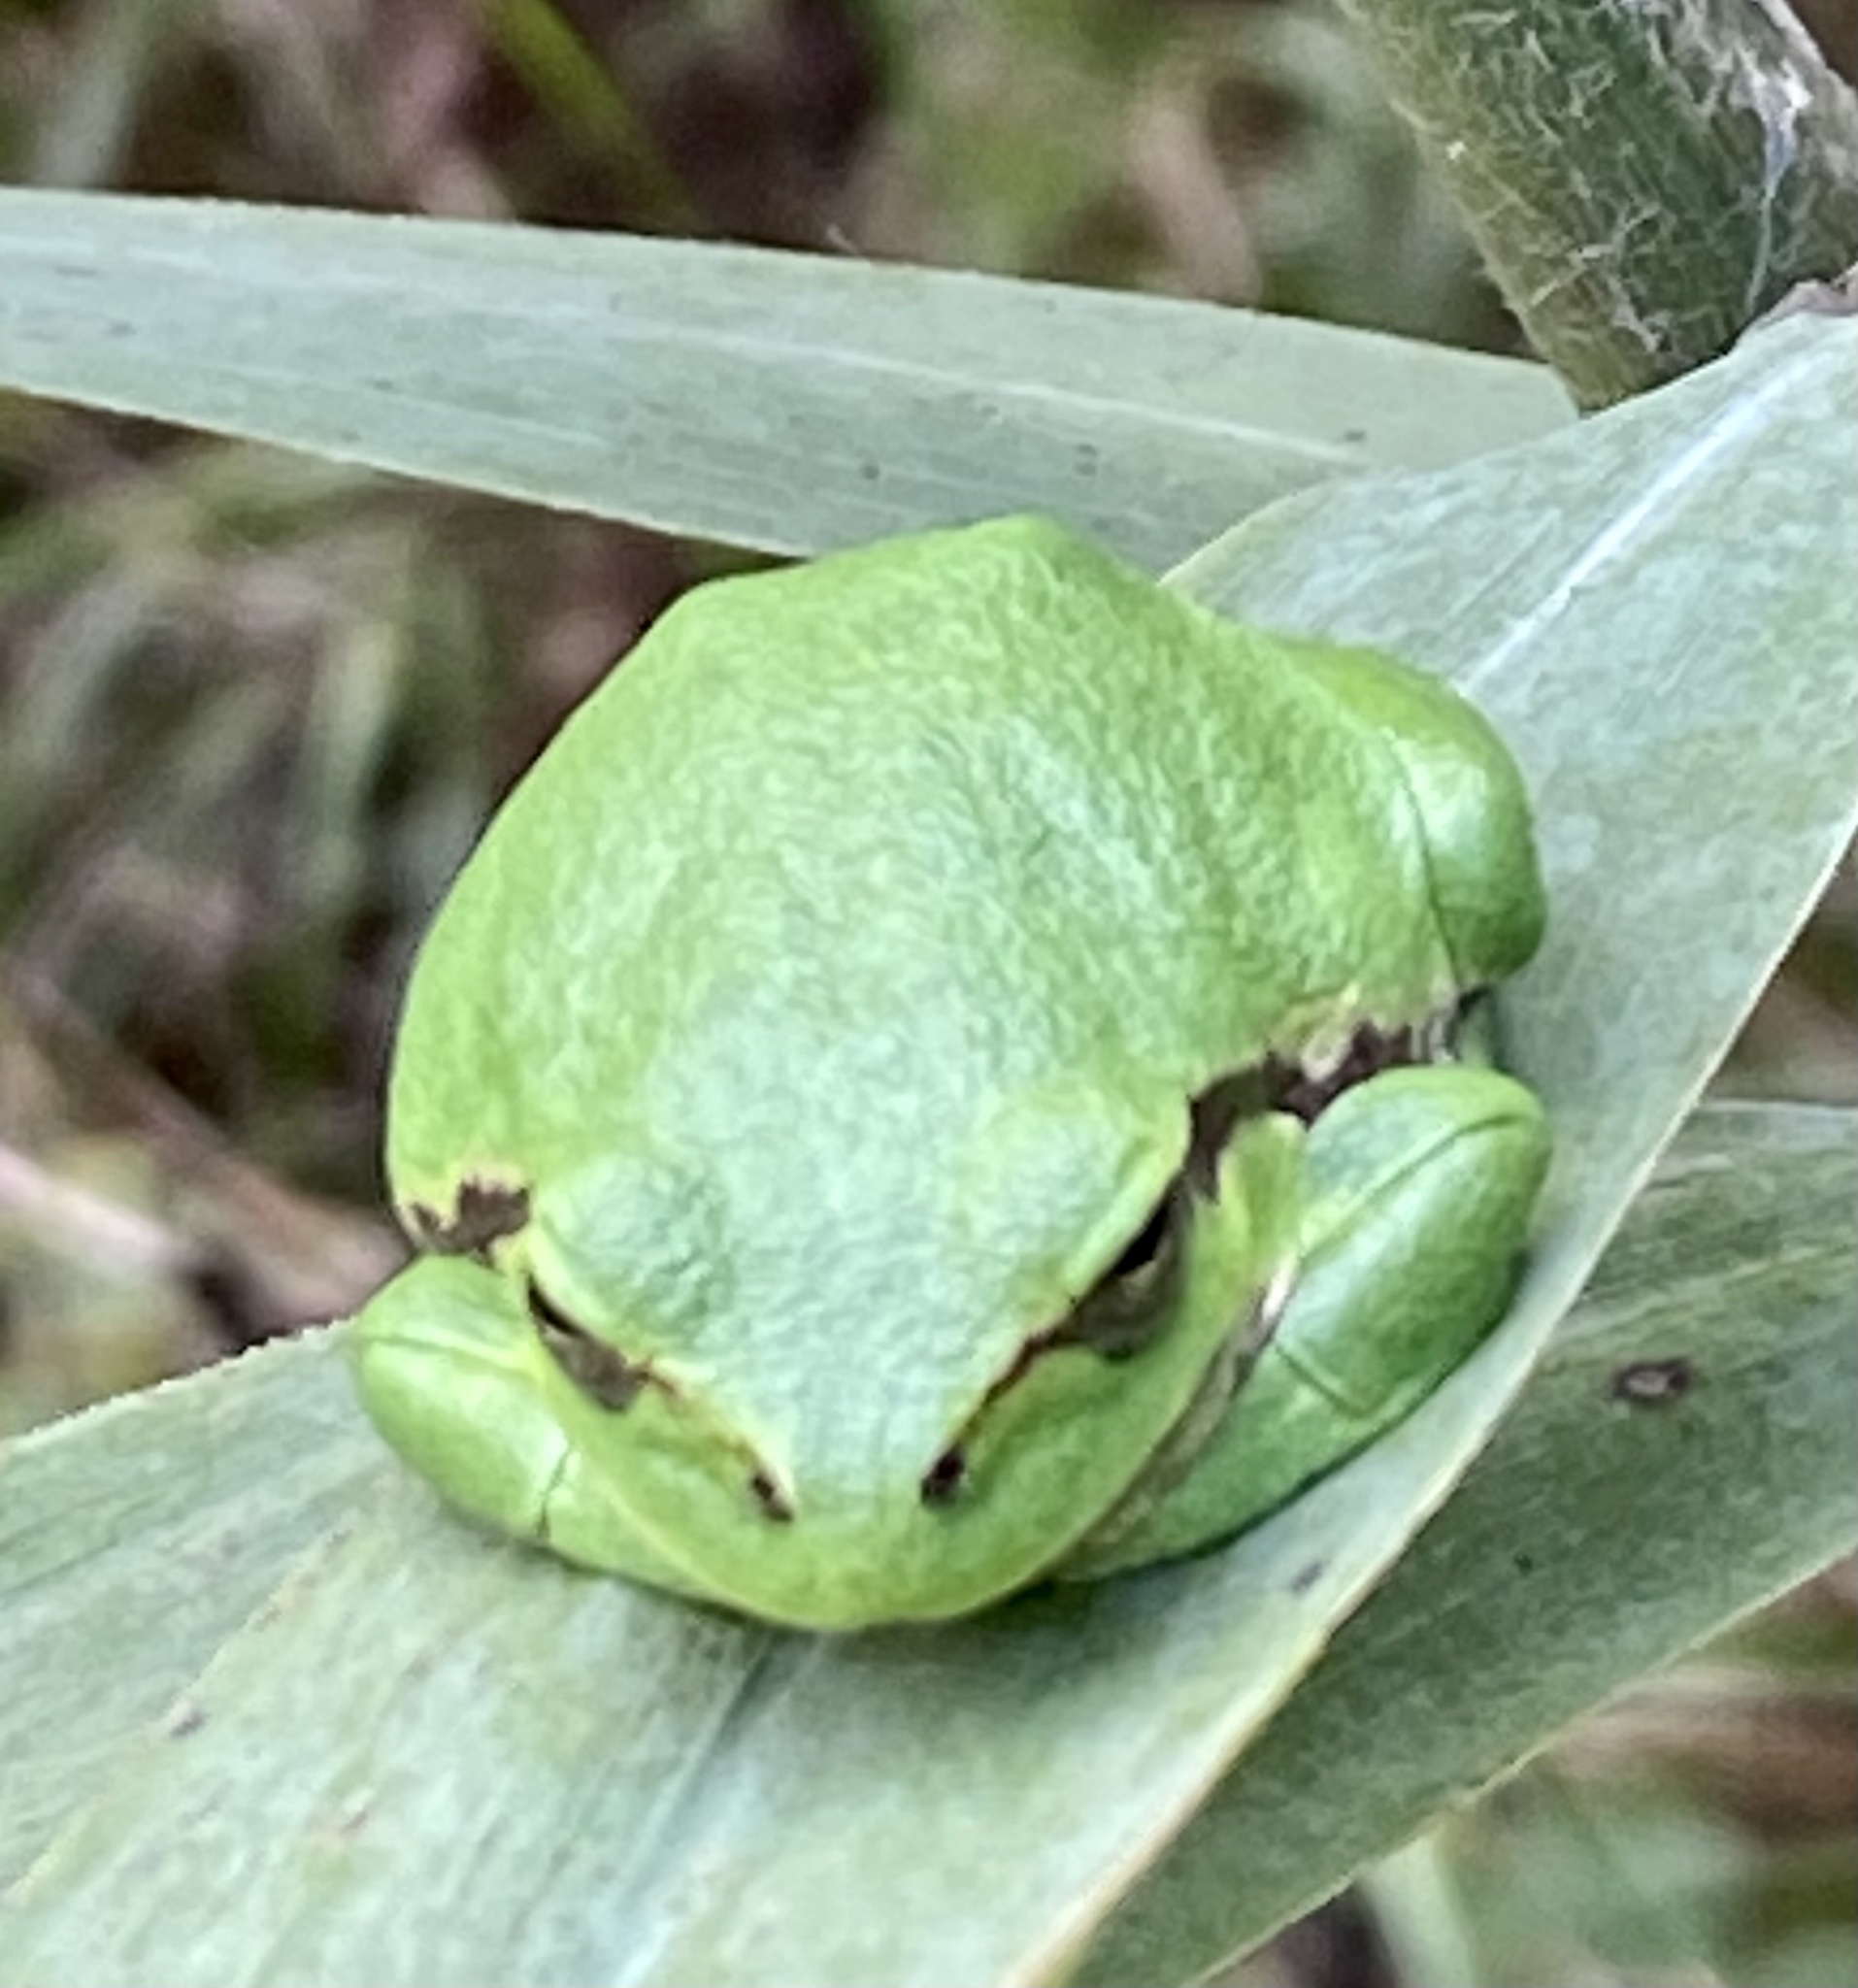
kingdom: Animalia
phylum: Chordata
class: Amphibia
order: Anura
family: Hylidae
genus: Hyla
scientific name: Hyla arborea
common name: Common tree frog
